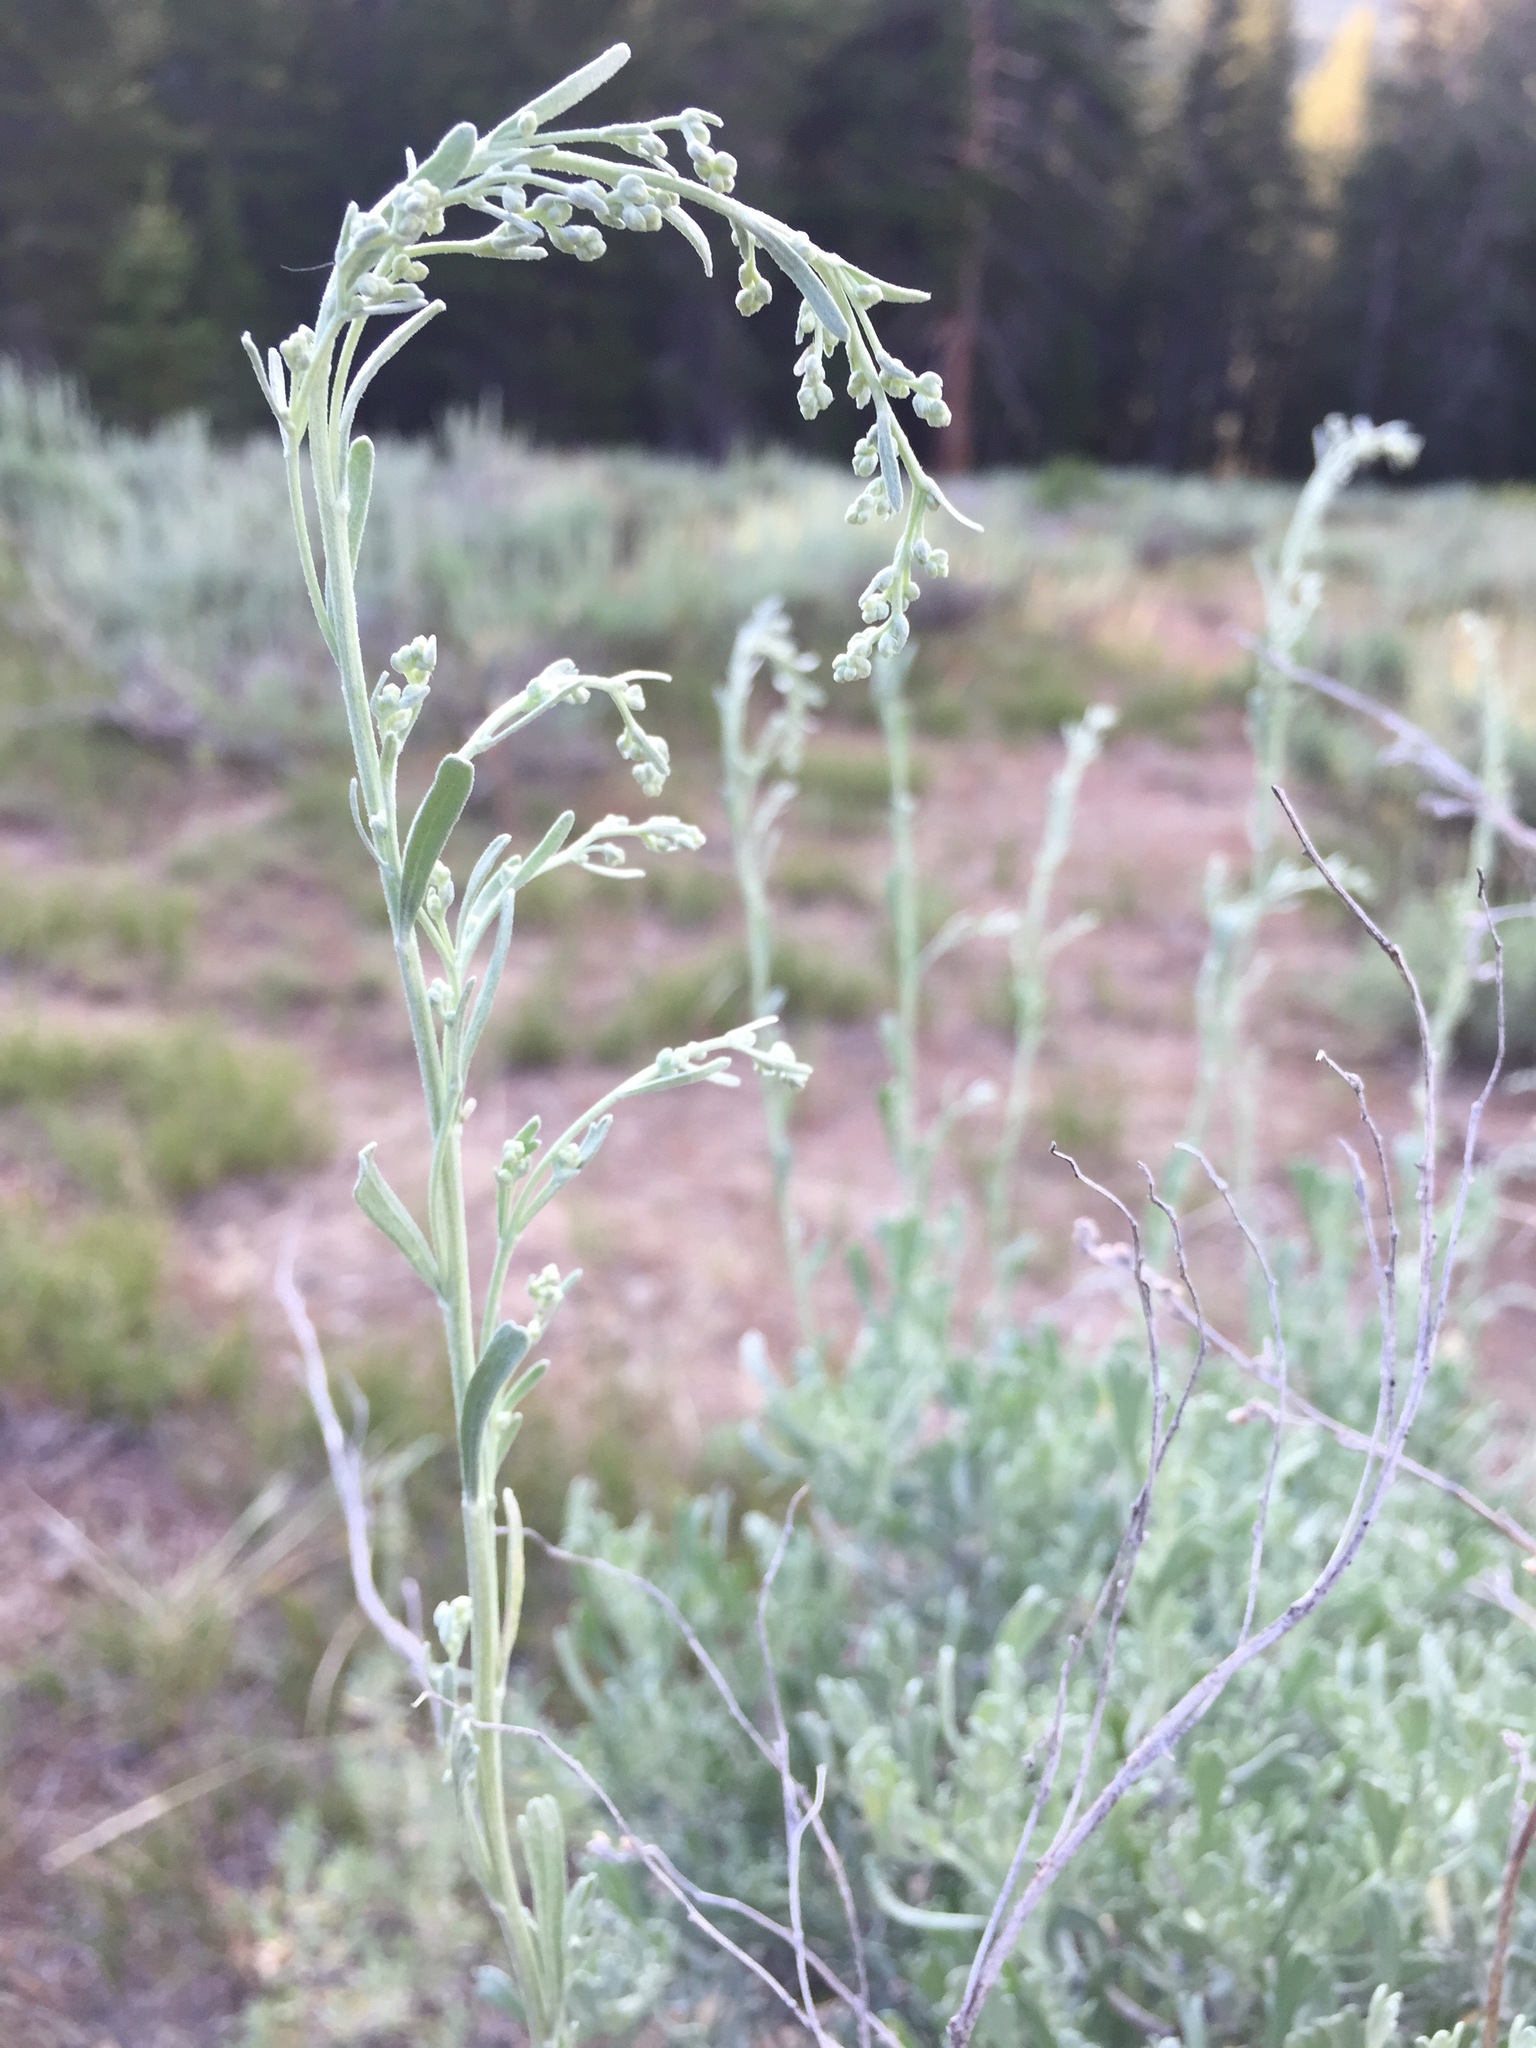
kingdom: Plantae
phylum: Tracheophyta
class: Magnoliopsida
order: Asterales
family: Asteraceae
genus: Artemisia
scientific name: Artemisia tridentata
